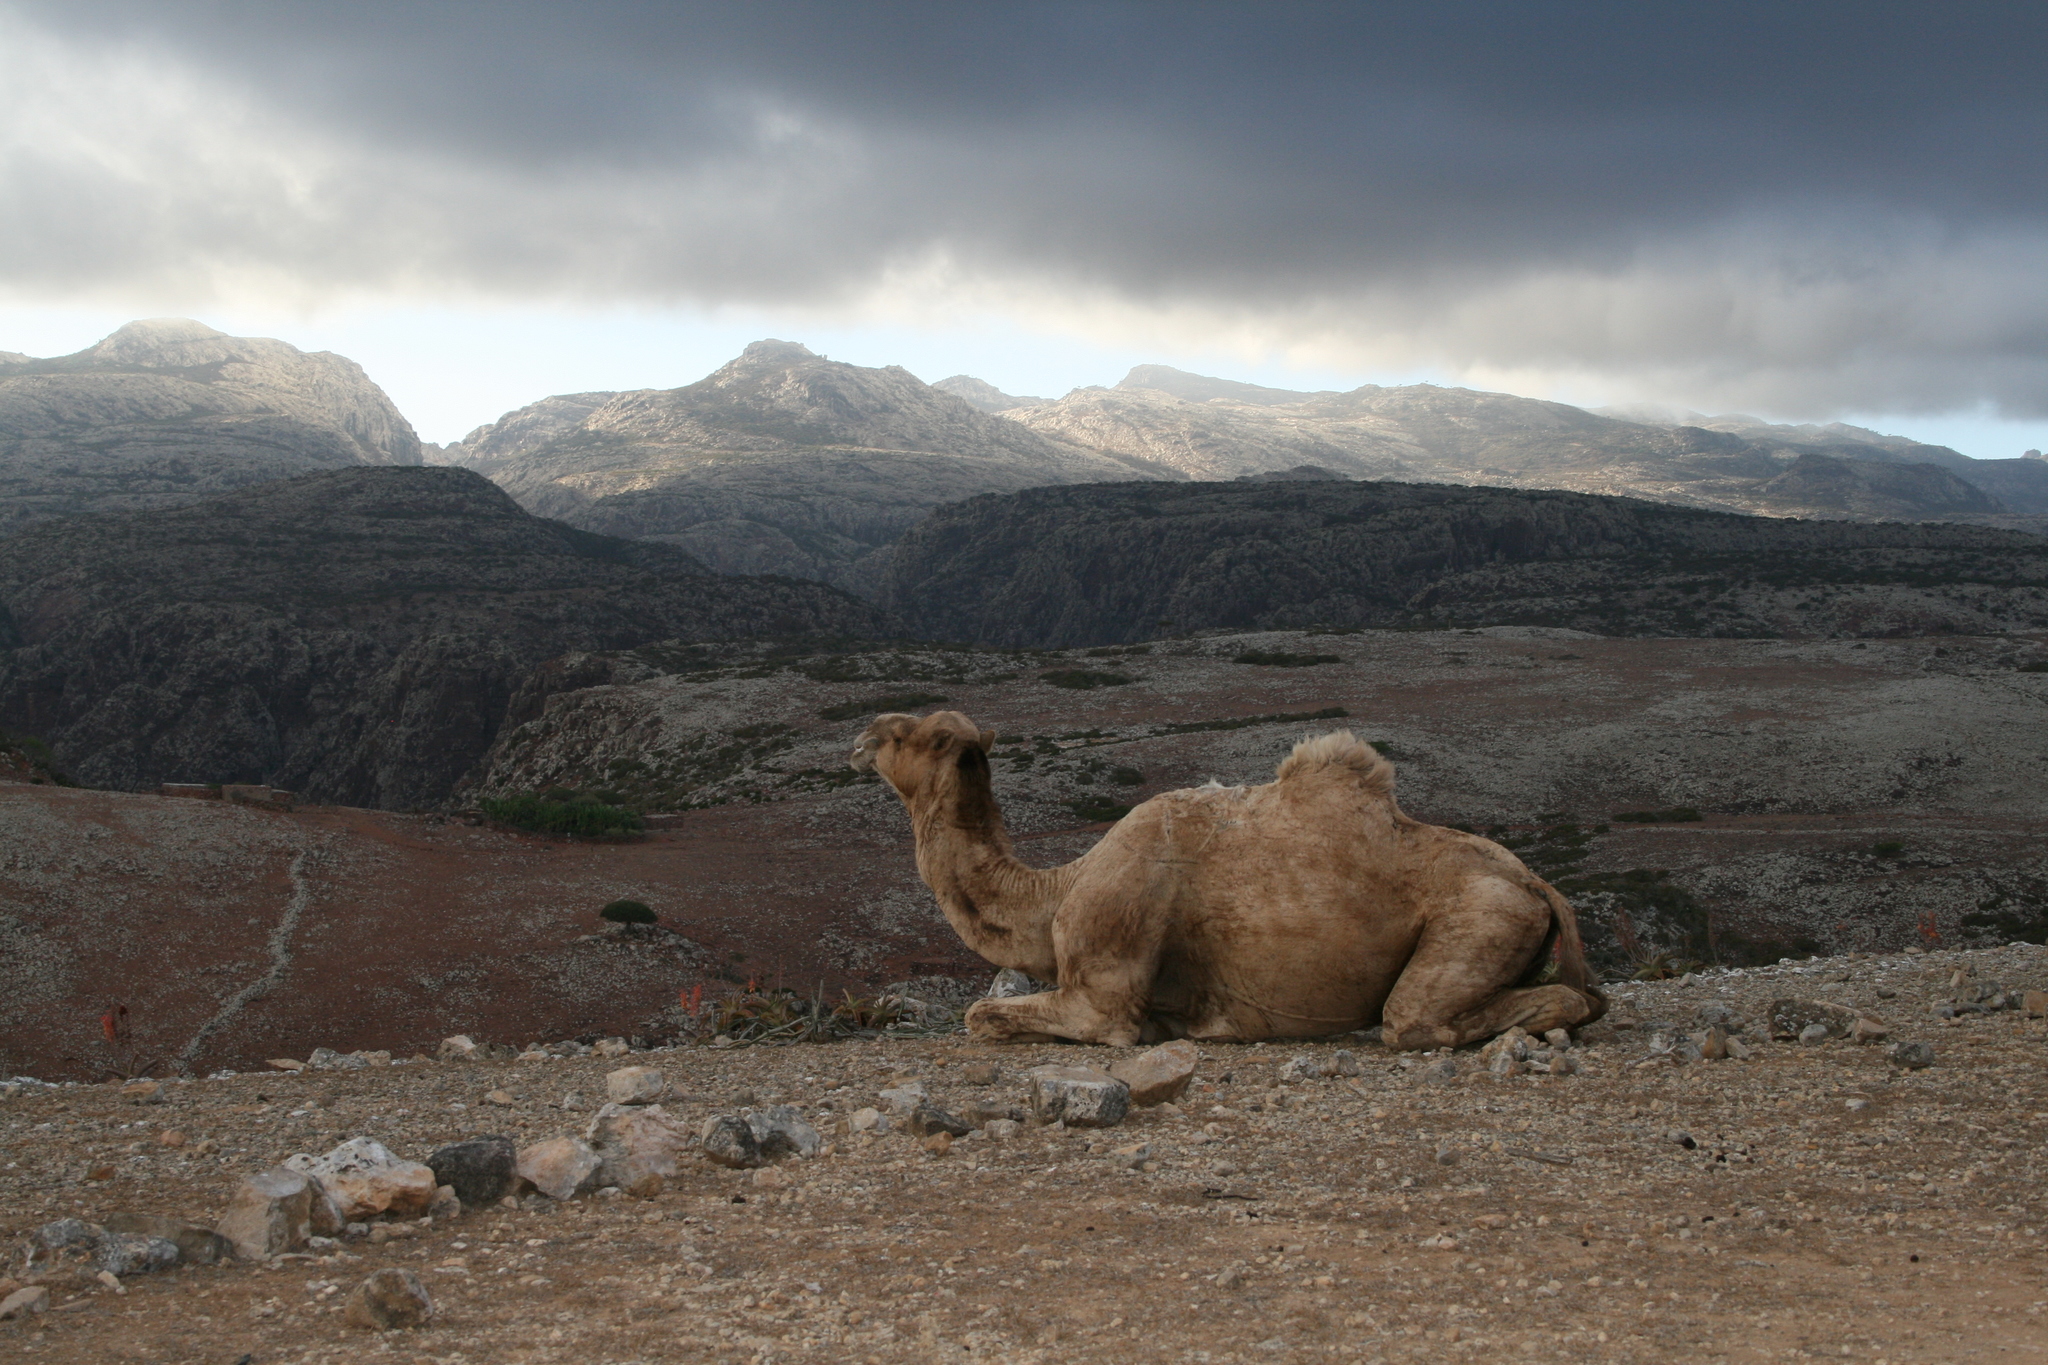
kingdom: Animalia
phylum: Chordata
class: Mammalia
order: Artiodactyla
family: Camelidae
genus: Camelus
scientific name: Camelus dromedarius
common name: One-humped camel
